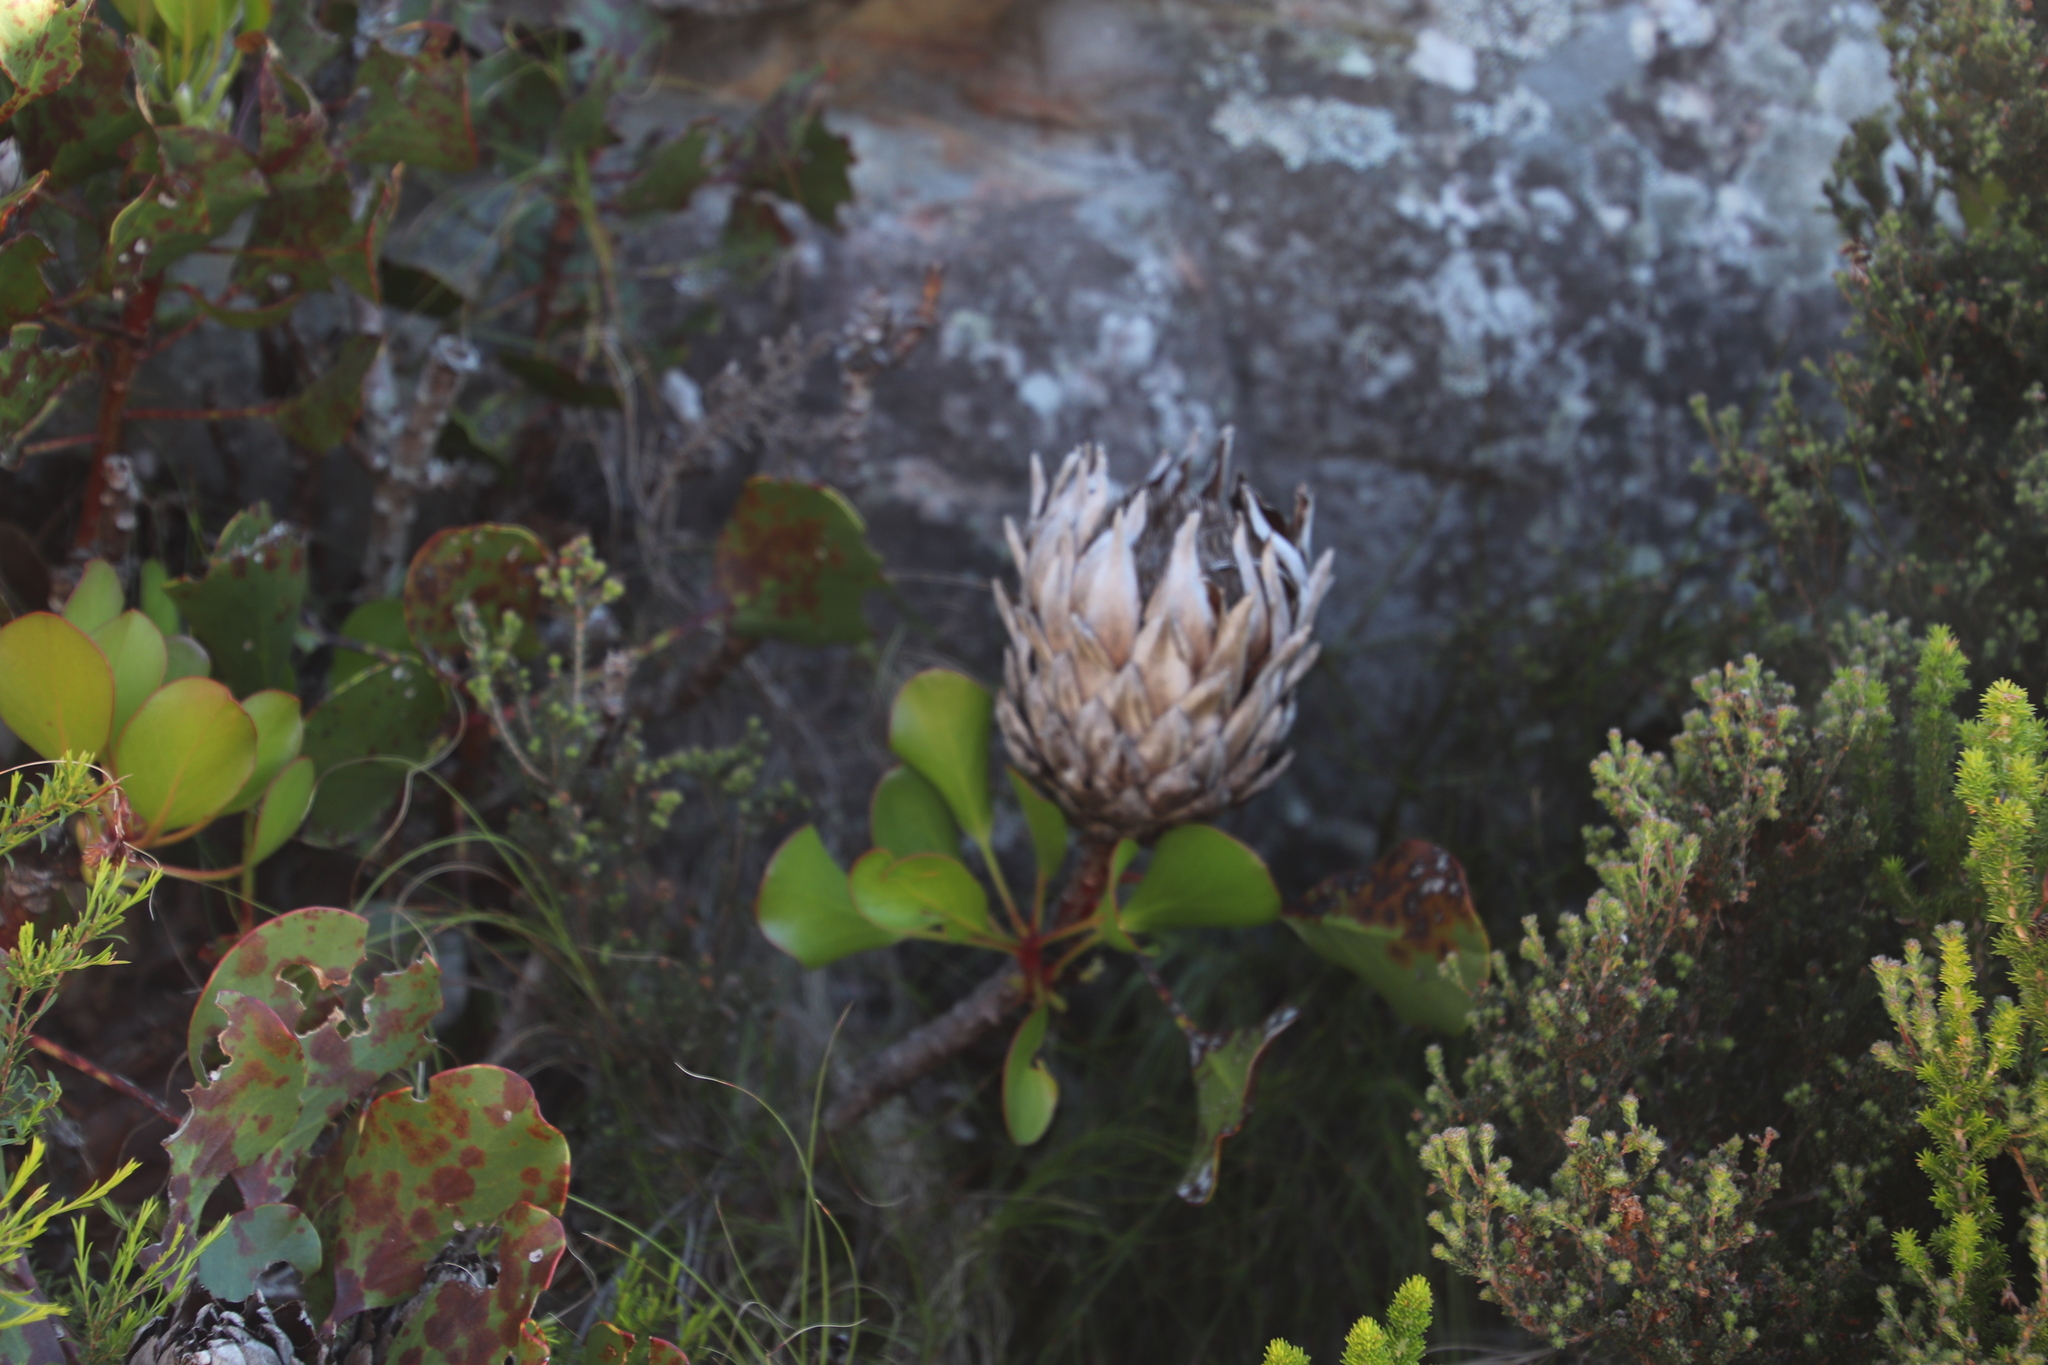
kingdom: Plantae
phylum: Tracheophyta
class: Magnoliopsida
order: Proteales
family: Proteaceae
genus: Protea
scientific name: Protea cynaroides
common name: King protea
